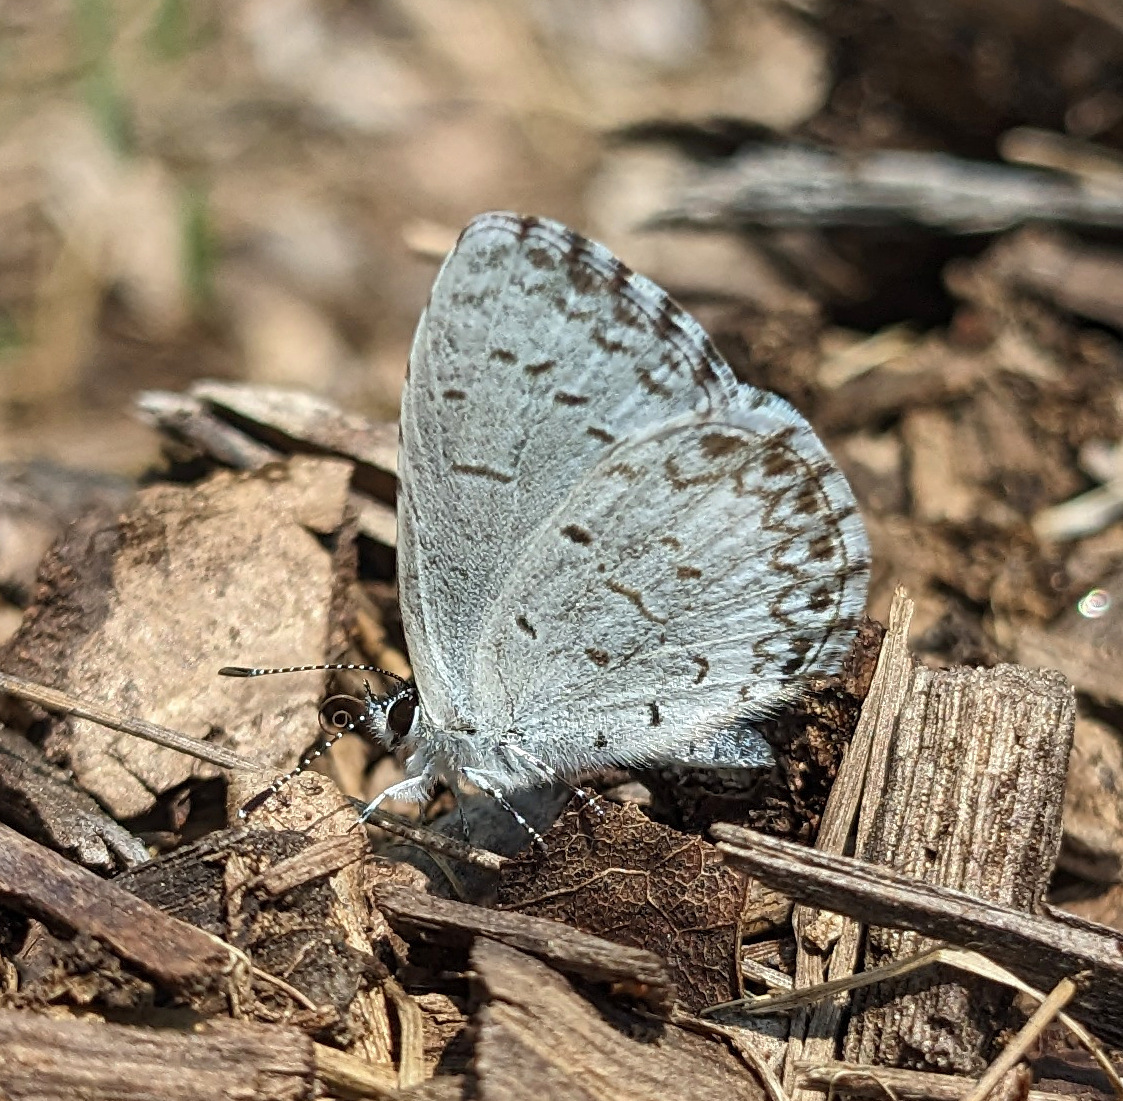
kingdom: Animalia
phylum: Arthropoda
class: Insecta
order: Lepidoptera
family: Lycaenidae
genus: Celastrina
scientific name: Celastrina lucia
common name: Lucia azure
